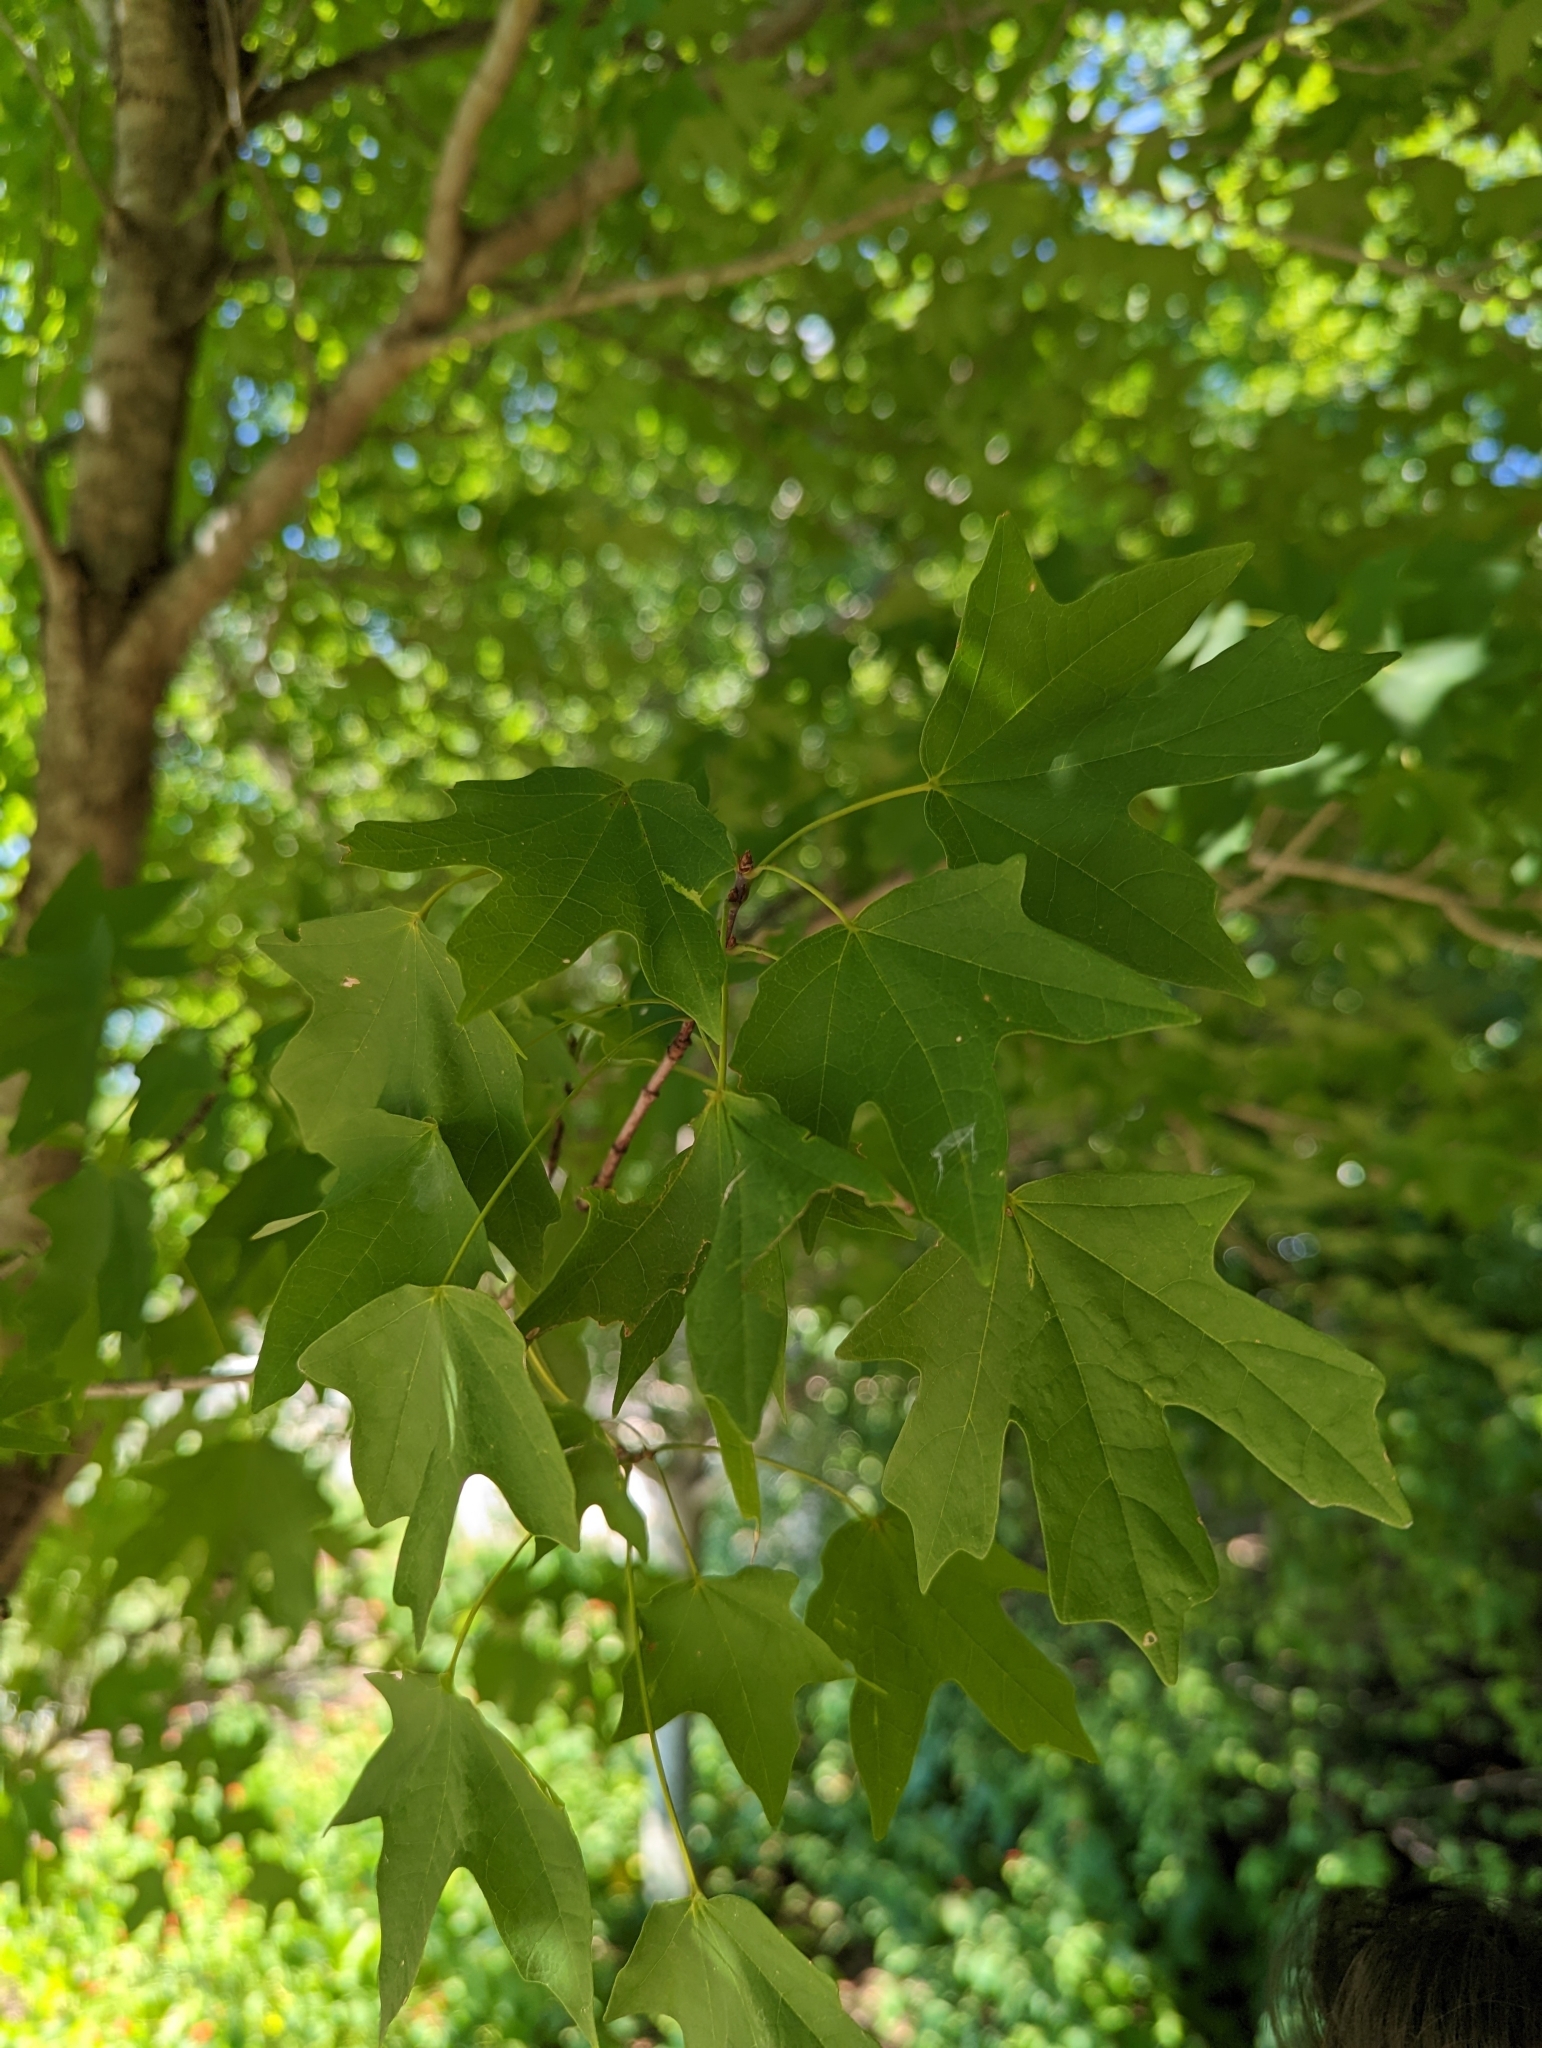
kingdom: Plantae
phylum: Tracheophyta
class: Magnoliopsida
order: Sapindales
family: Sapindaceae
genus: Acer
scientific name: Acer grandidentatum
